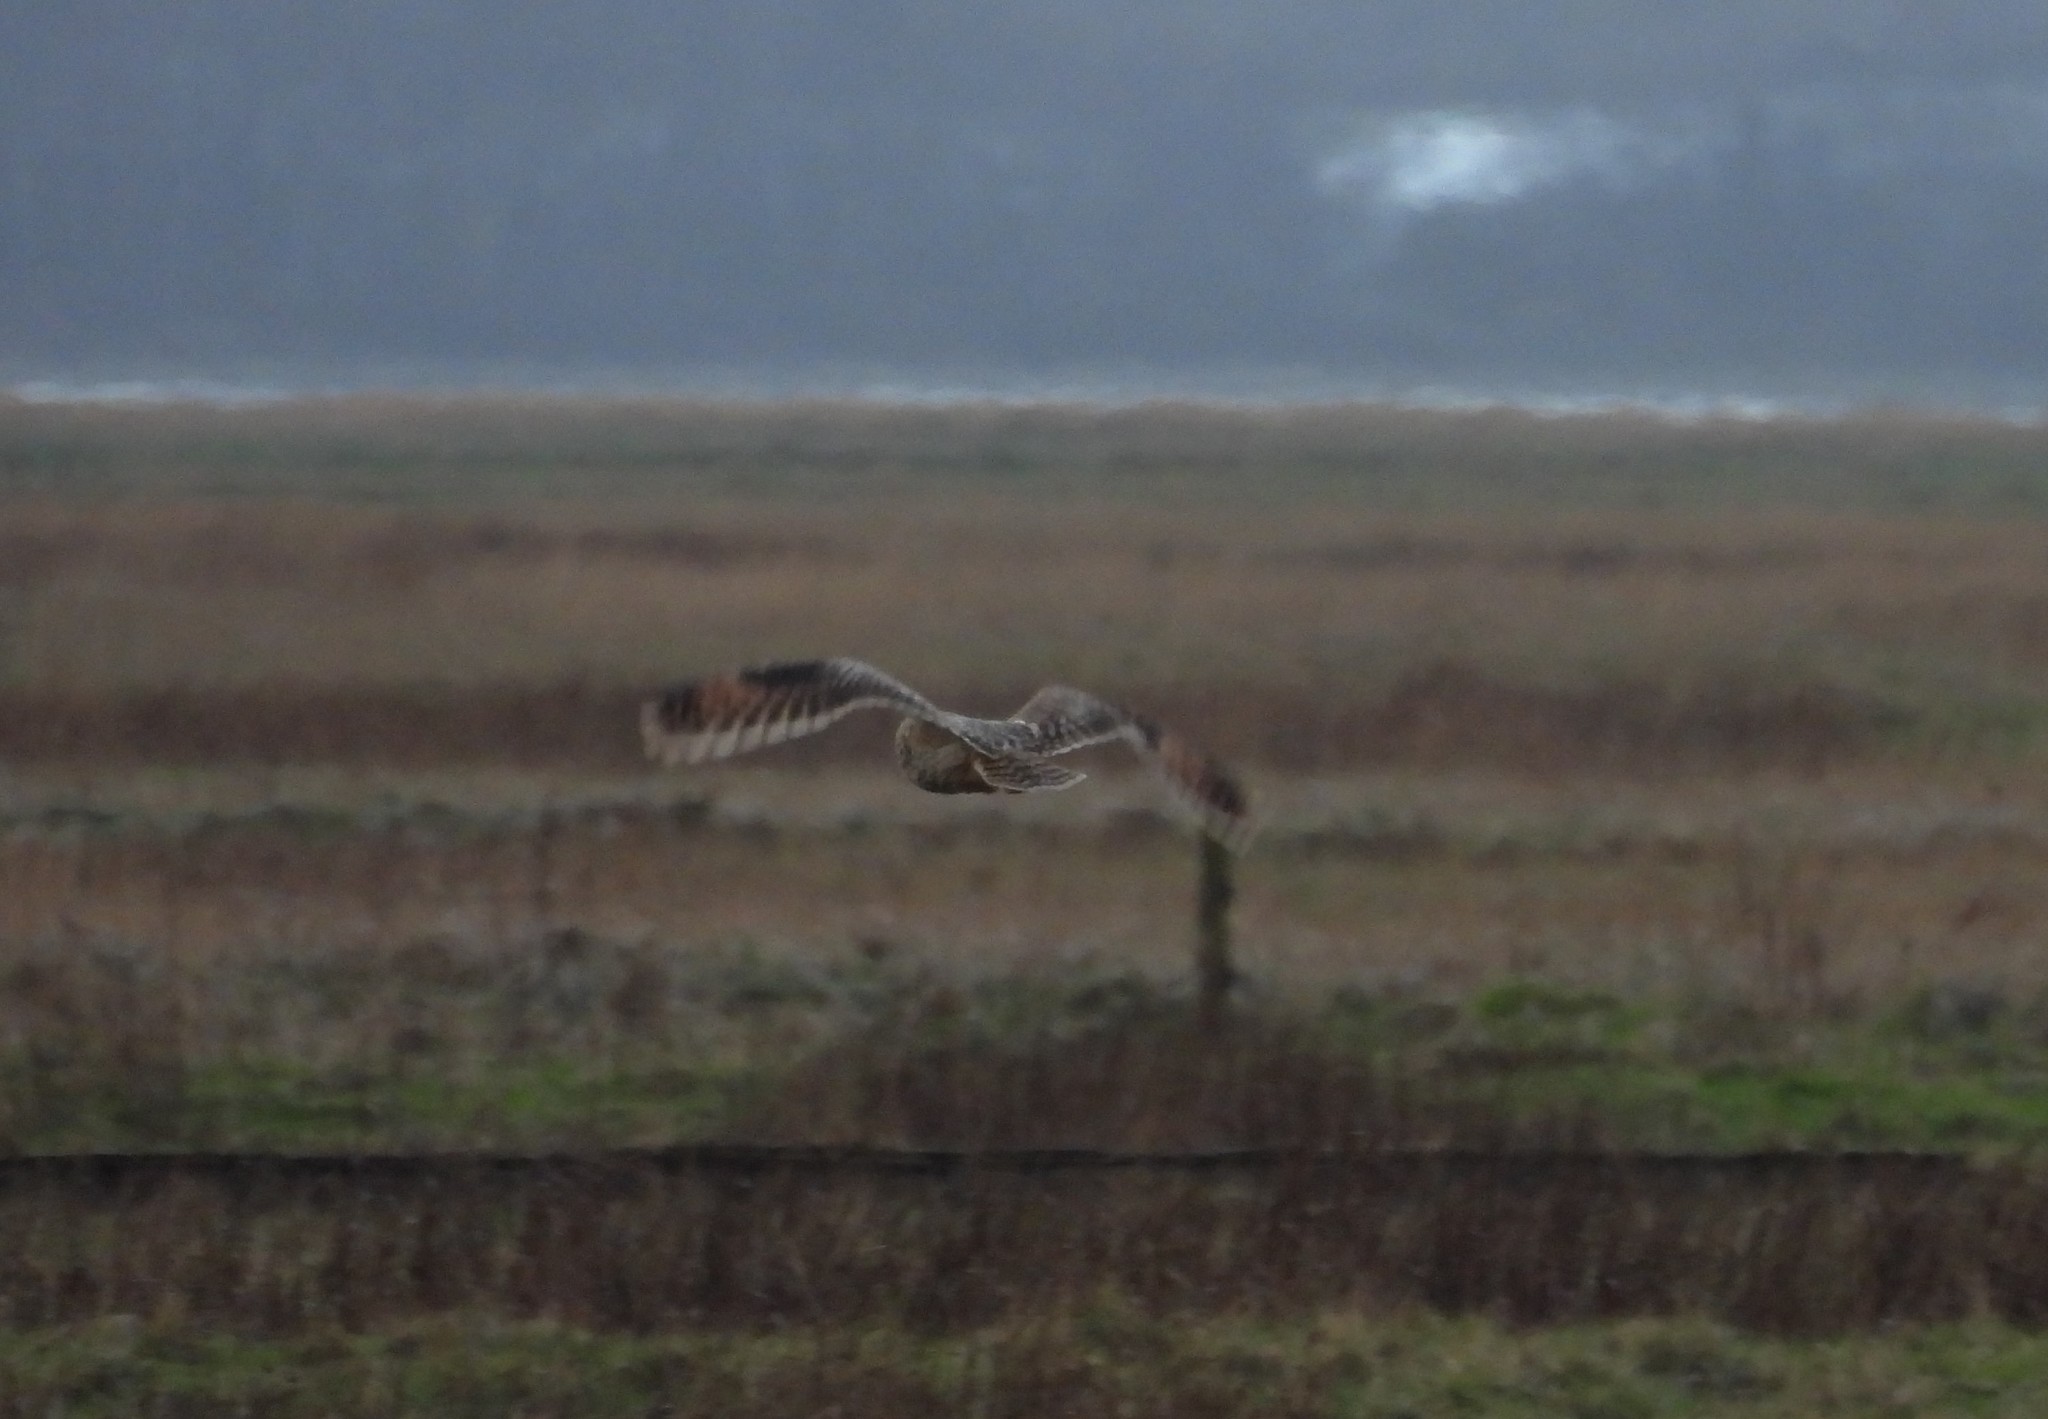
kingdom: Animalia
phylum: Chordata
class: Aves
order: Strigiformes
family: Strigidae
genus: Asio
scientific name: Asio flammeus
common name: Short-eared owl
